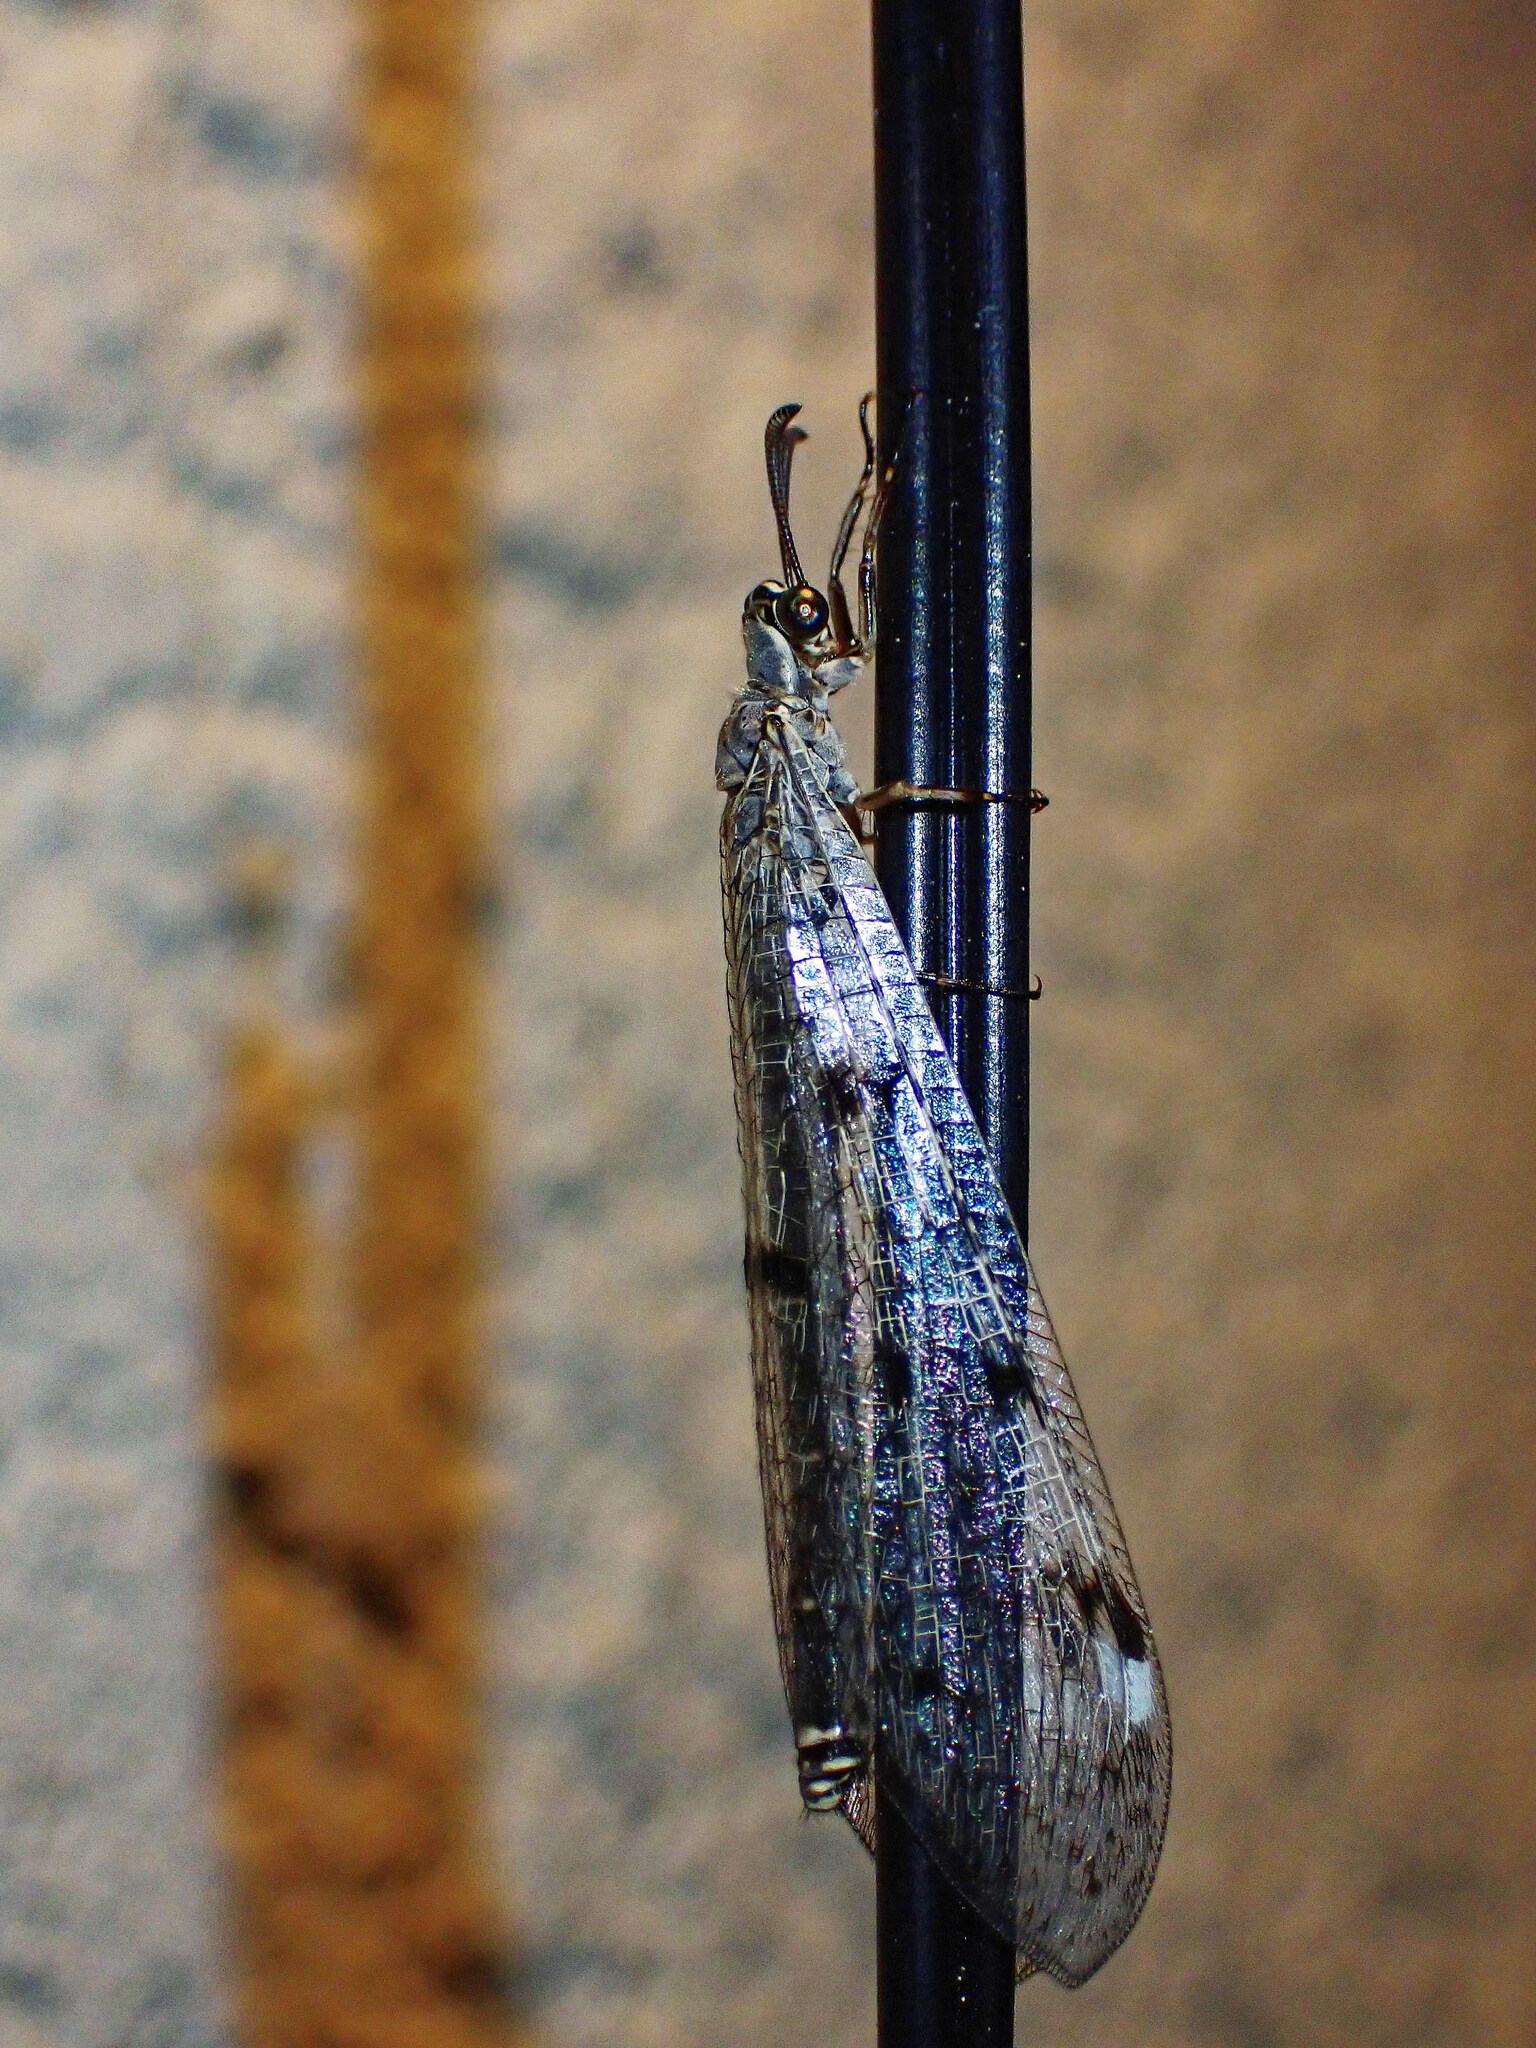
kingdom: Animalia
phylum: Arthropoda
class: Insecta
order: Neuroptera
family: Myrmeleontidae
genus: Euroleon
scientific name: Euroleon nostras
